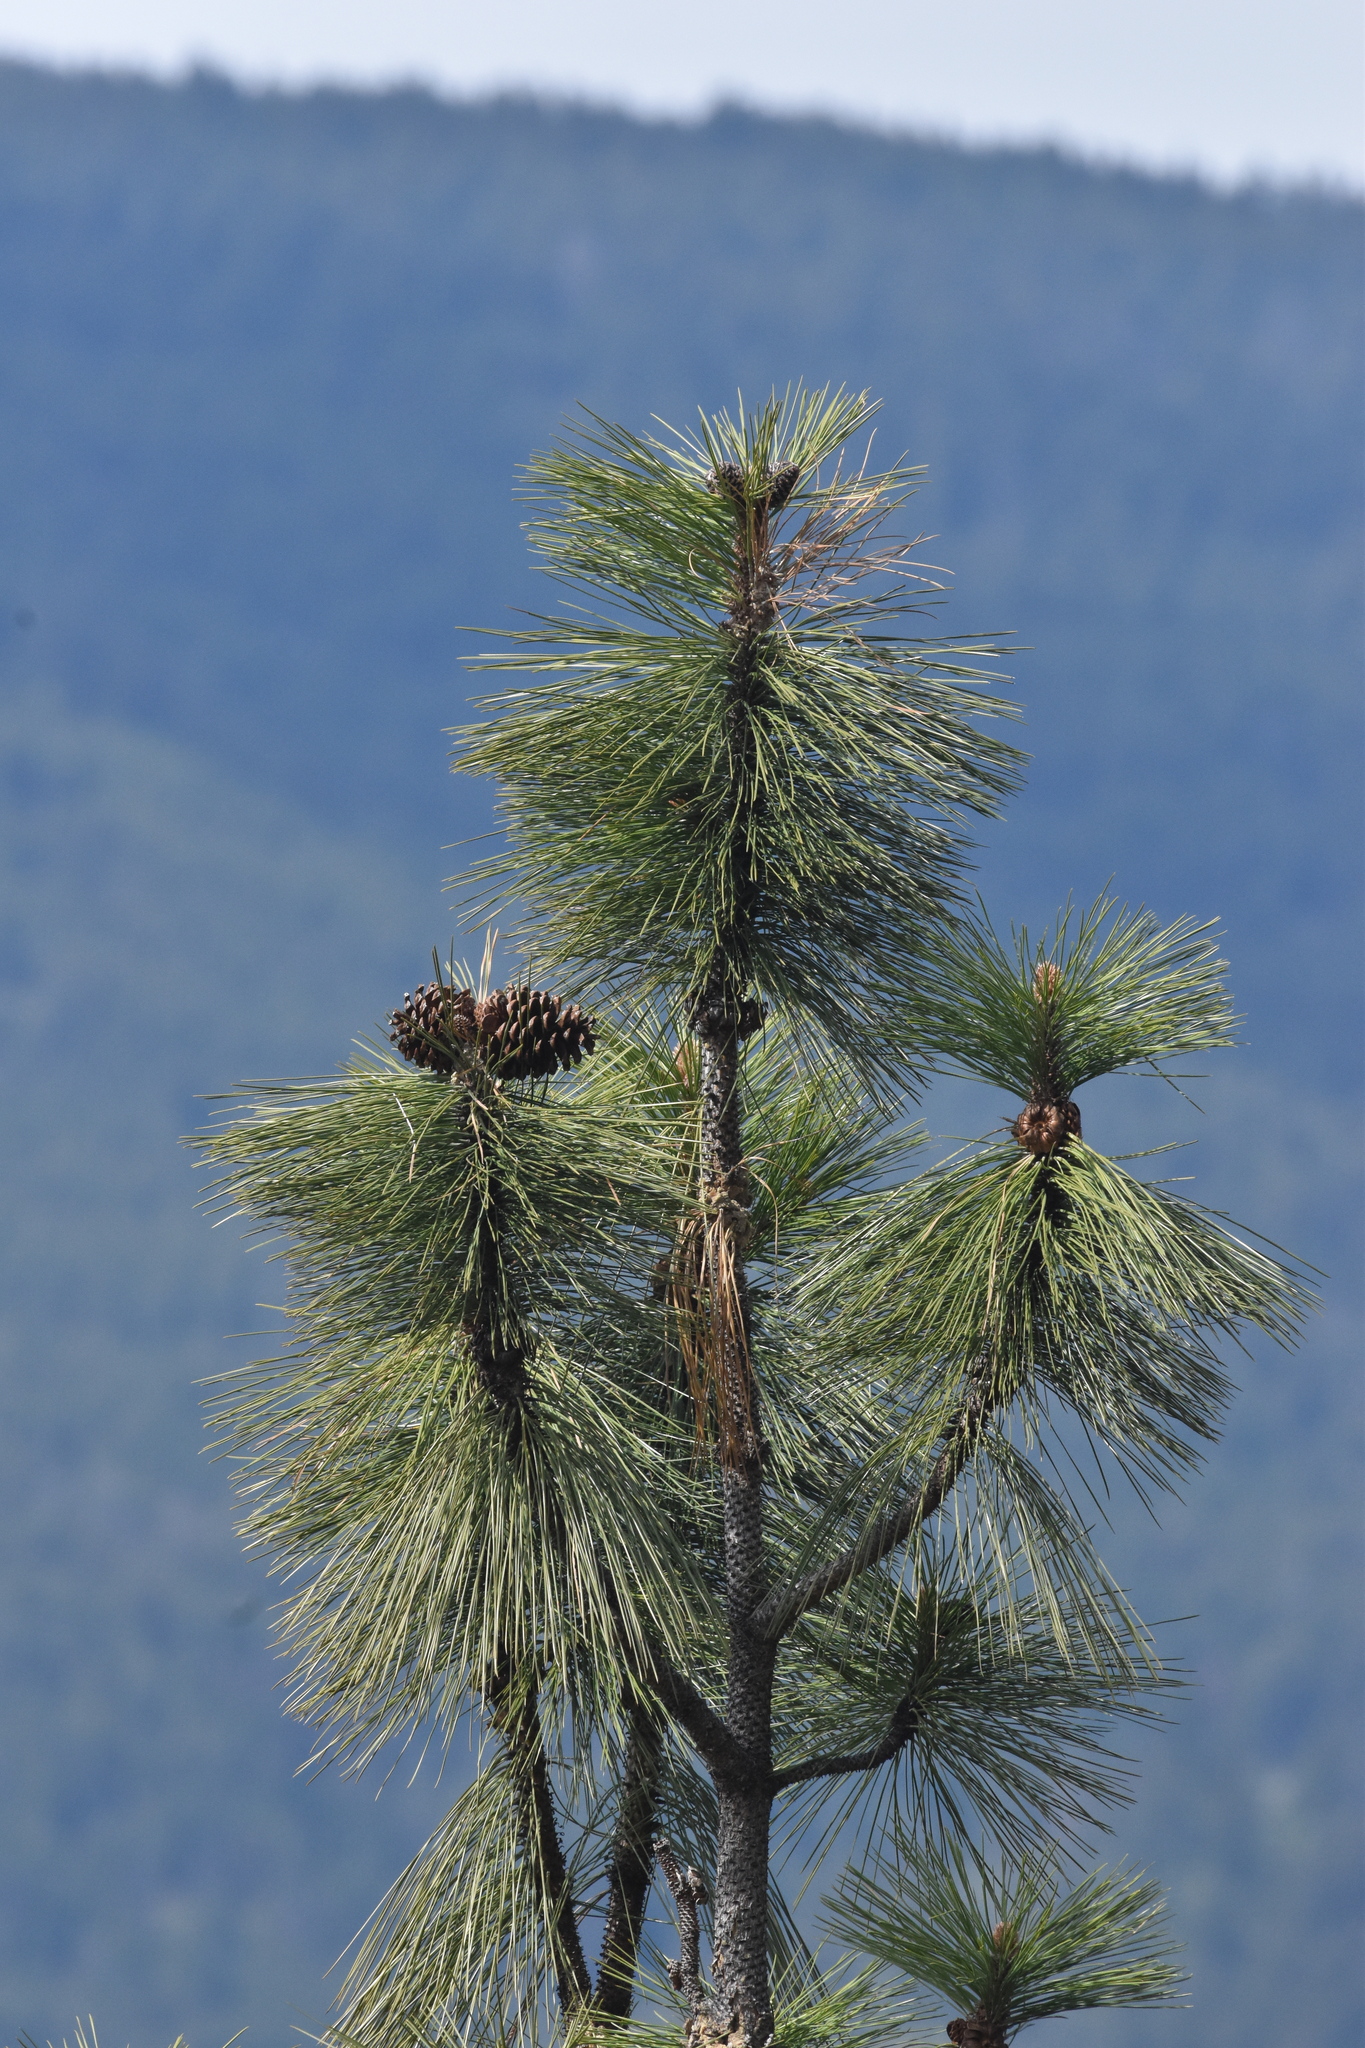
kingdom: Plantae
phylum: Tracheophyta
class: Pinopsida
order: Pinales
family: Pinaceae
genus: Pinus
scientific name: Pinus ponderosa
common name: Western yellow-pine
